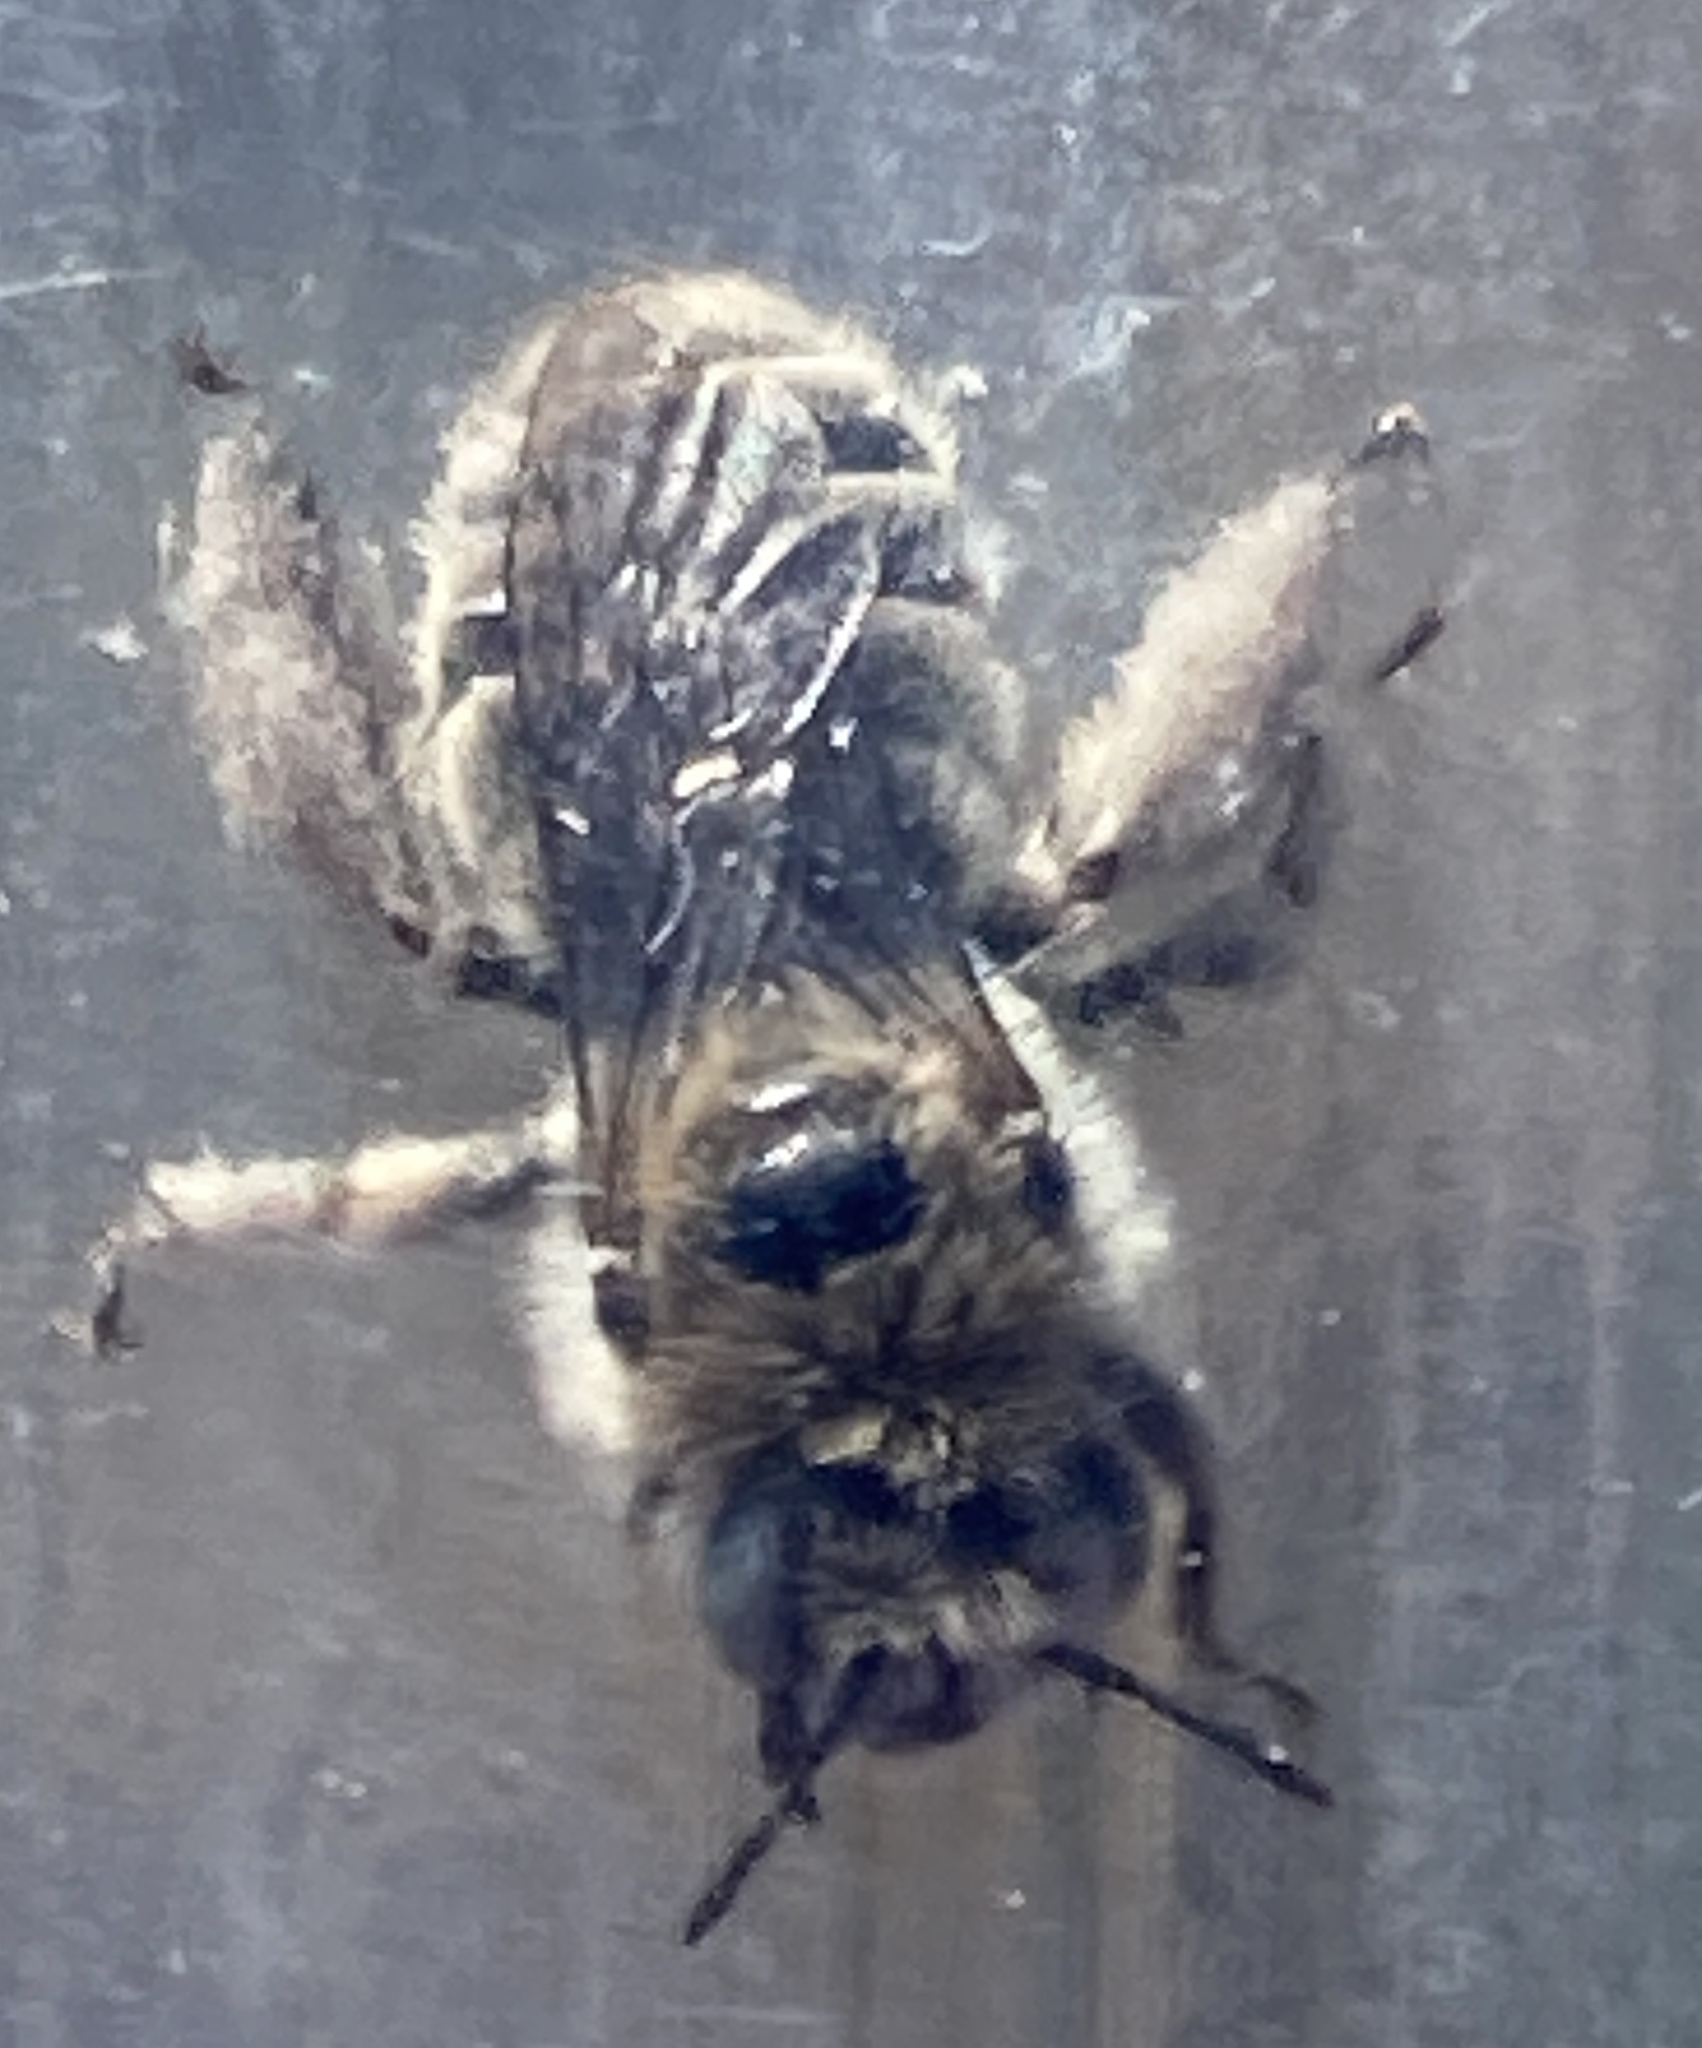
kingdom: Animalia
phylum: Arthropoda
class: Insecta
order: Hymenoptera
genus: Coquillettapis
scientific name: Coquillettapis
